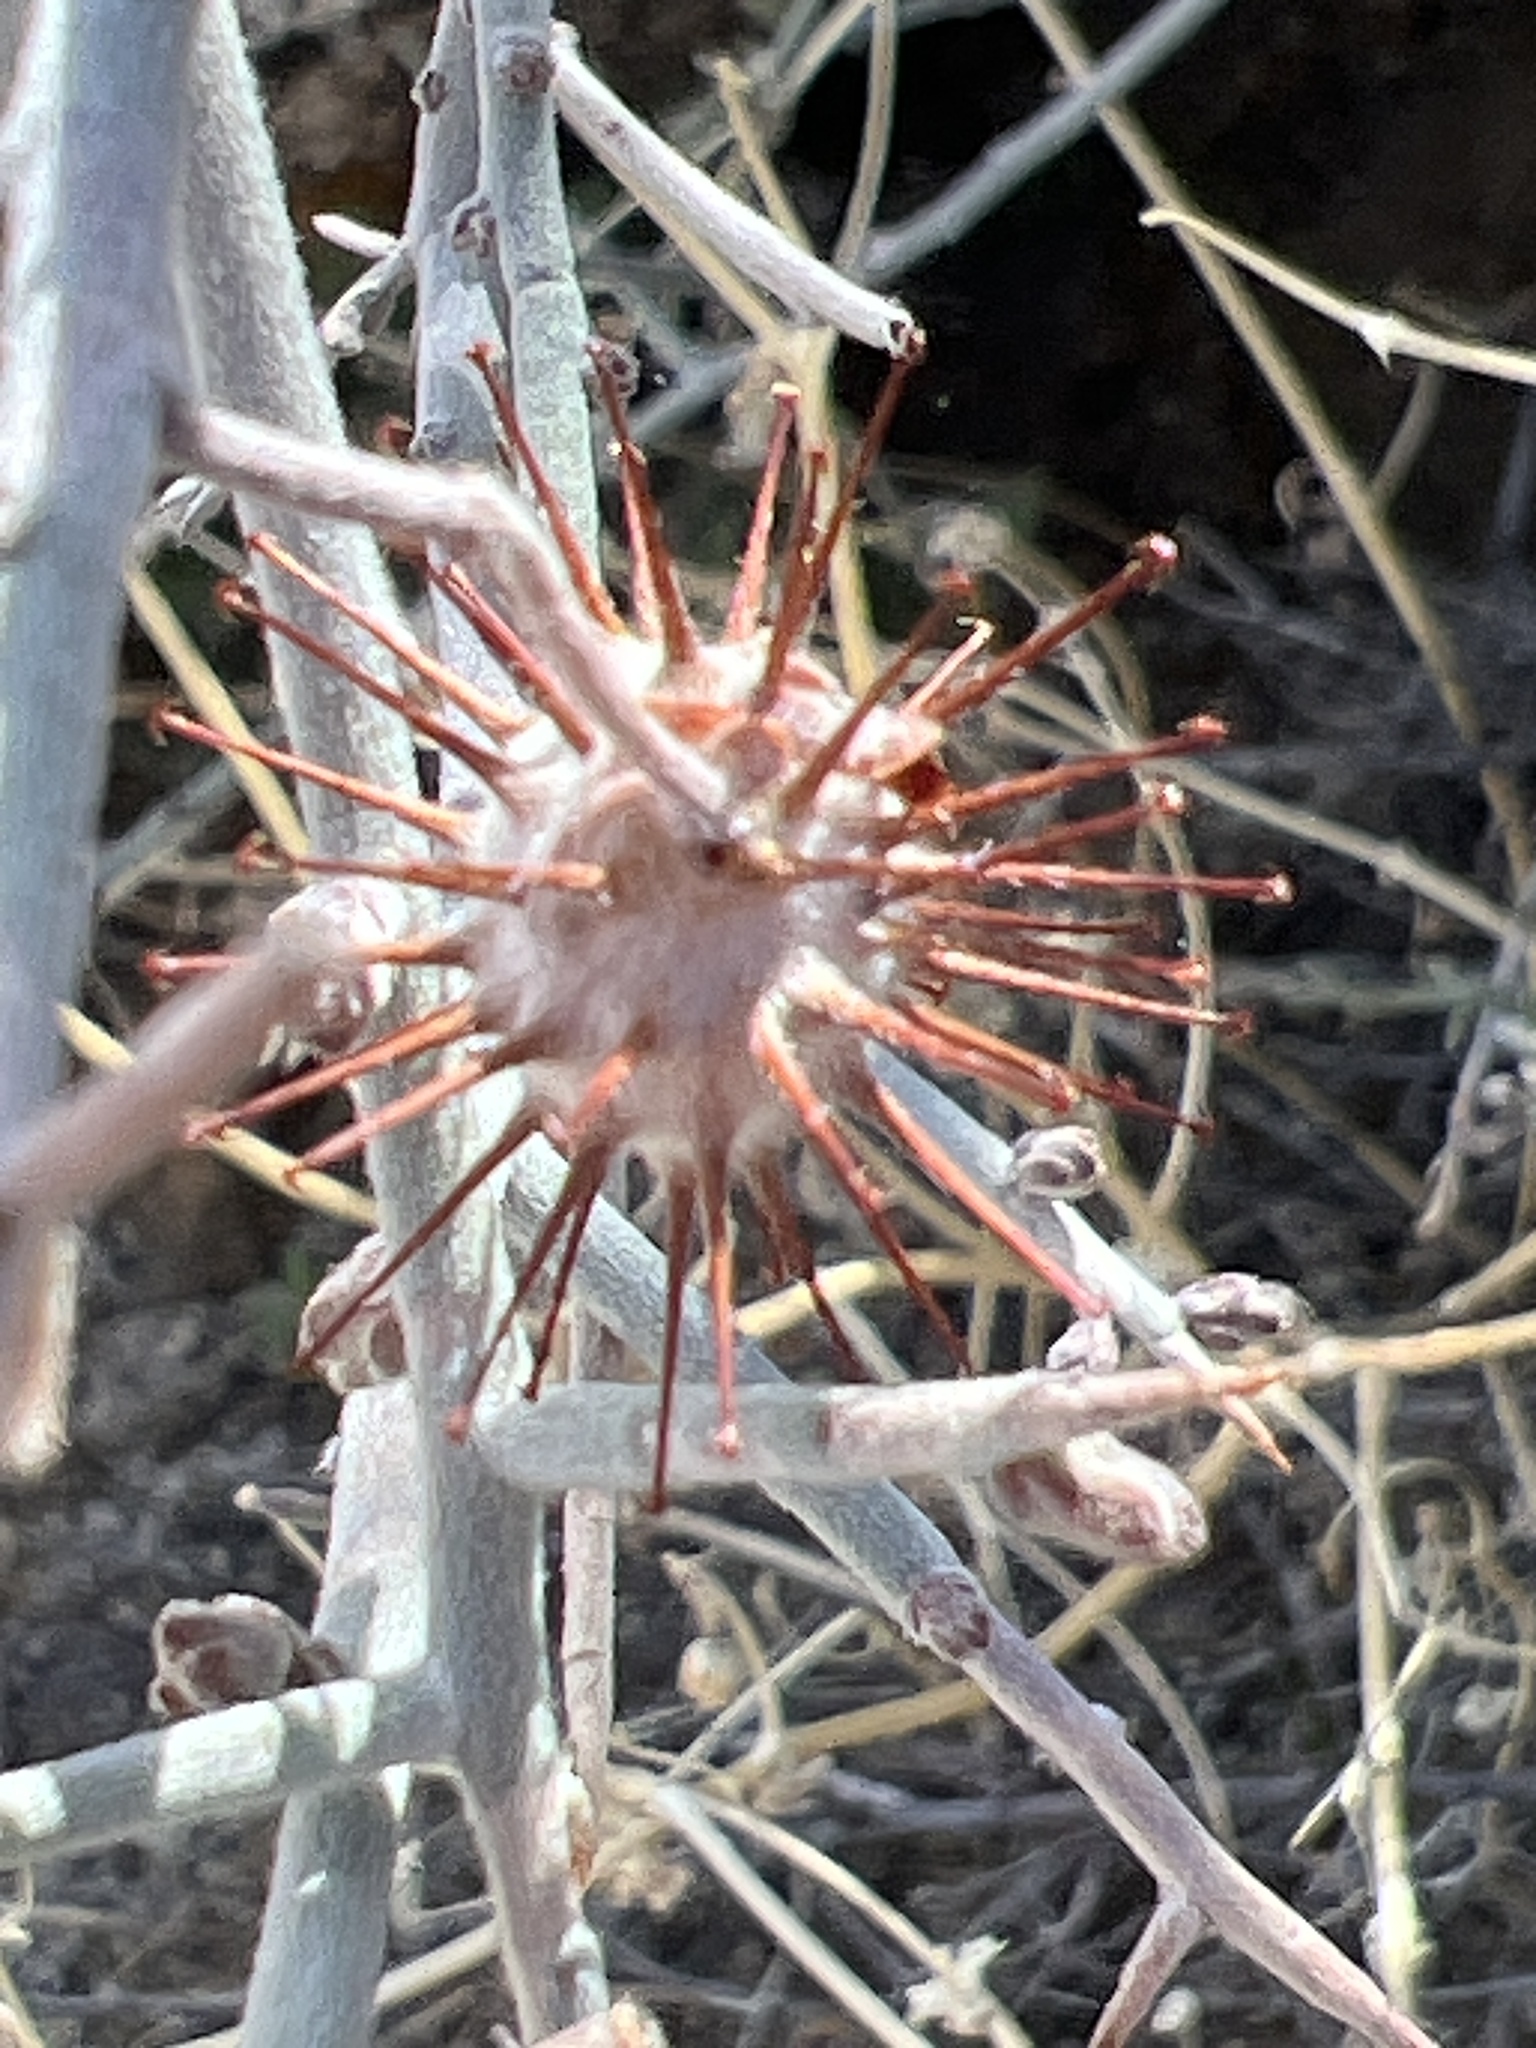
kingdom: Plantae
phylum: Tracheophyta
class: Magnoliopsida
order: Zygophyllales
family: Krameriaceae
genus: Krameria
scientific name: Krameria bicolor
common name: White ratany
